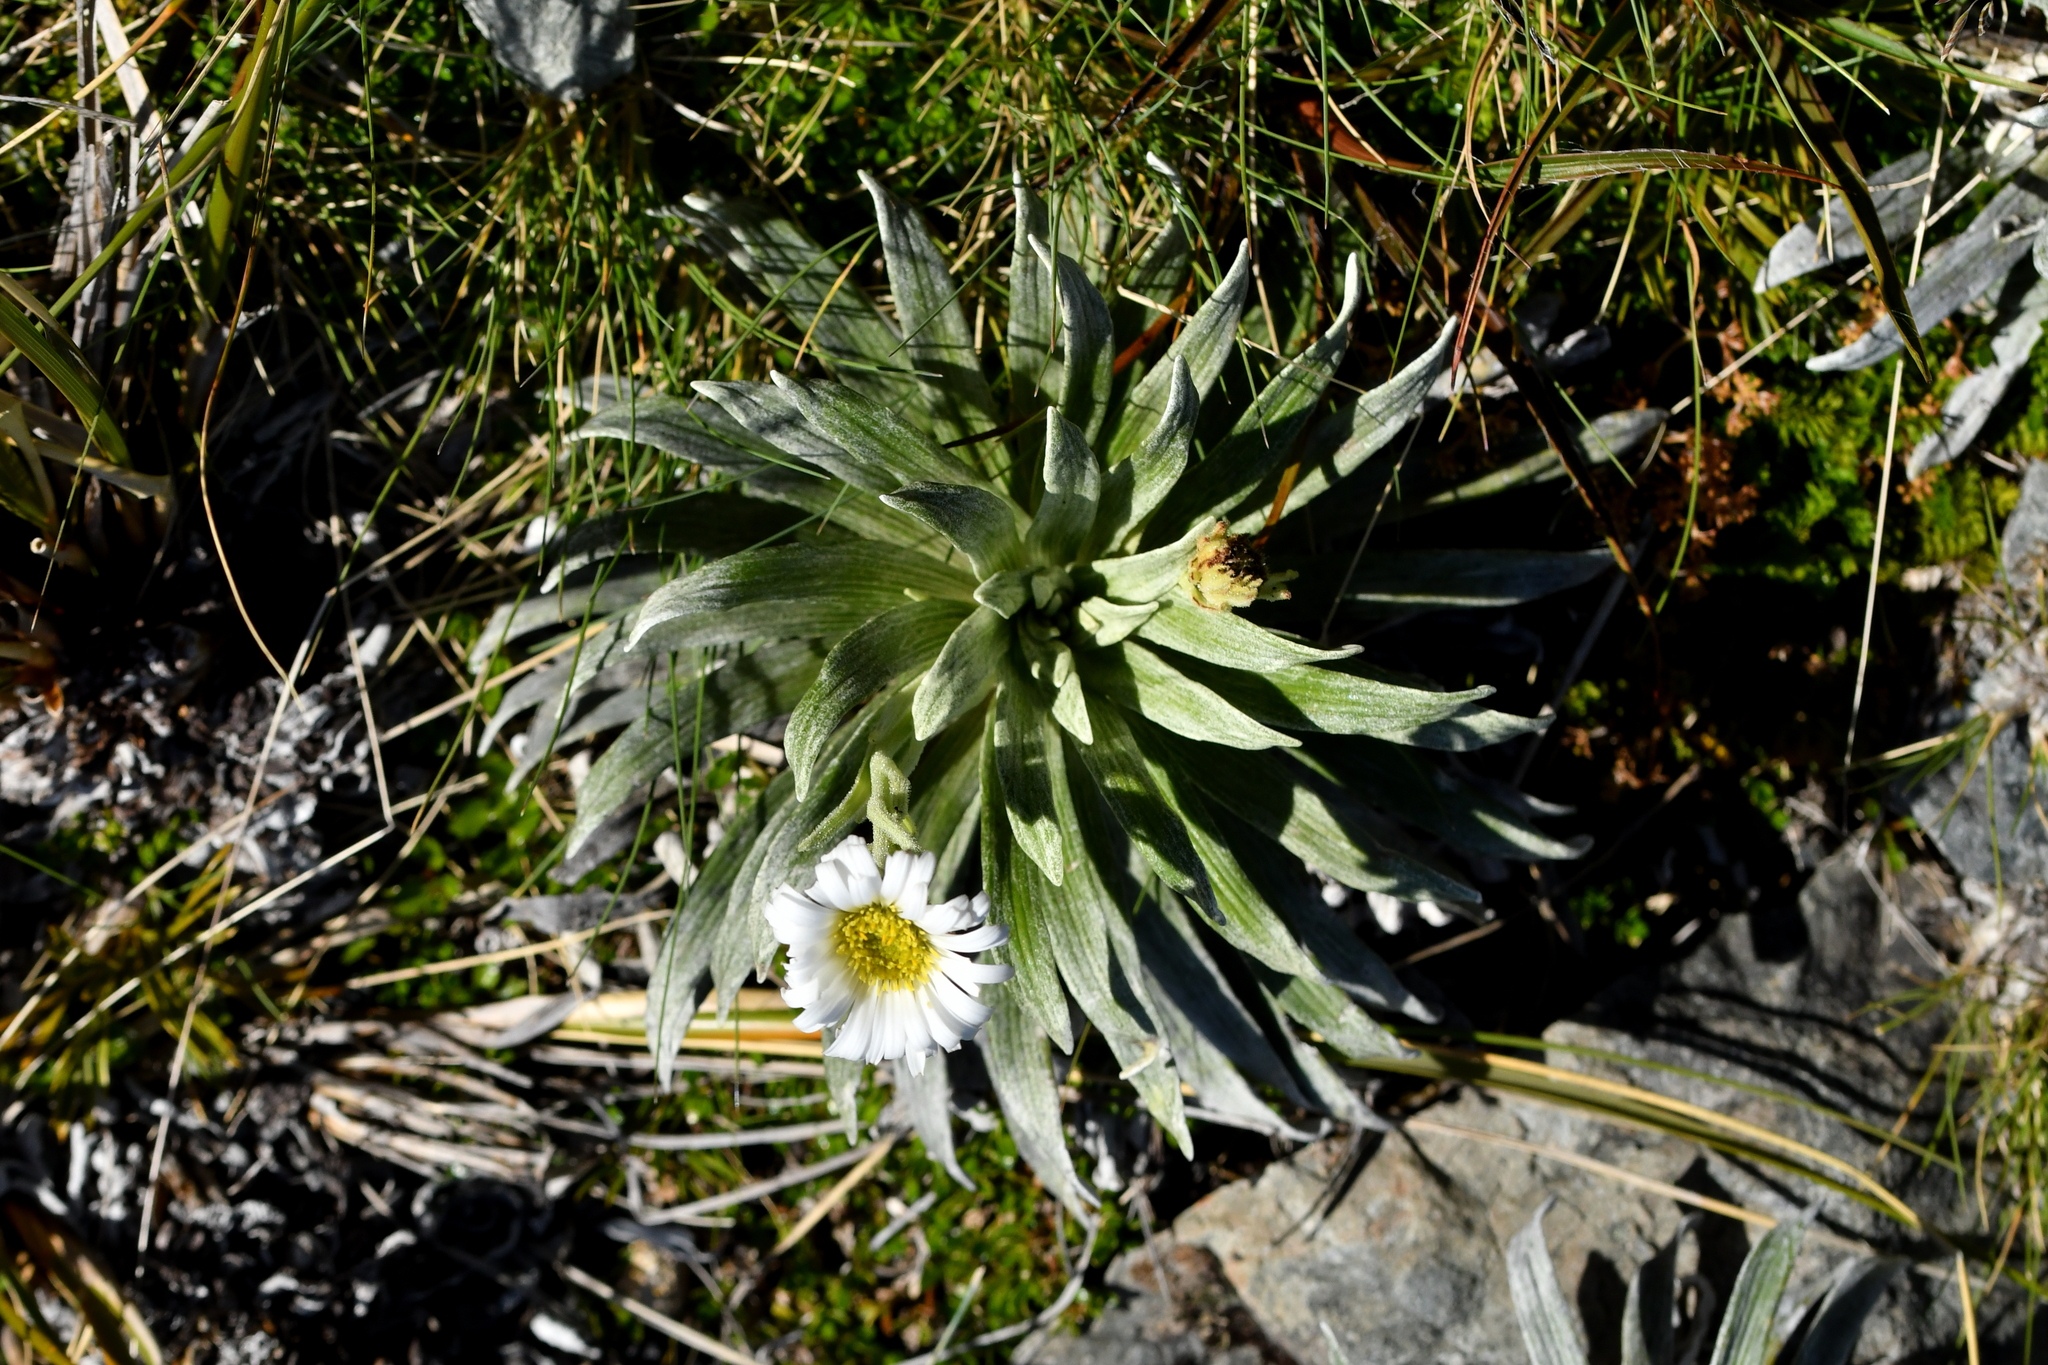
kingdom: Plantae
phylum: Tracheophyta
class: Magnoliopsida
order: Asterales
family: Asteraceae
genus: Celmisia
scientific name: Celmisia viscosa
